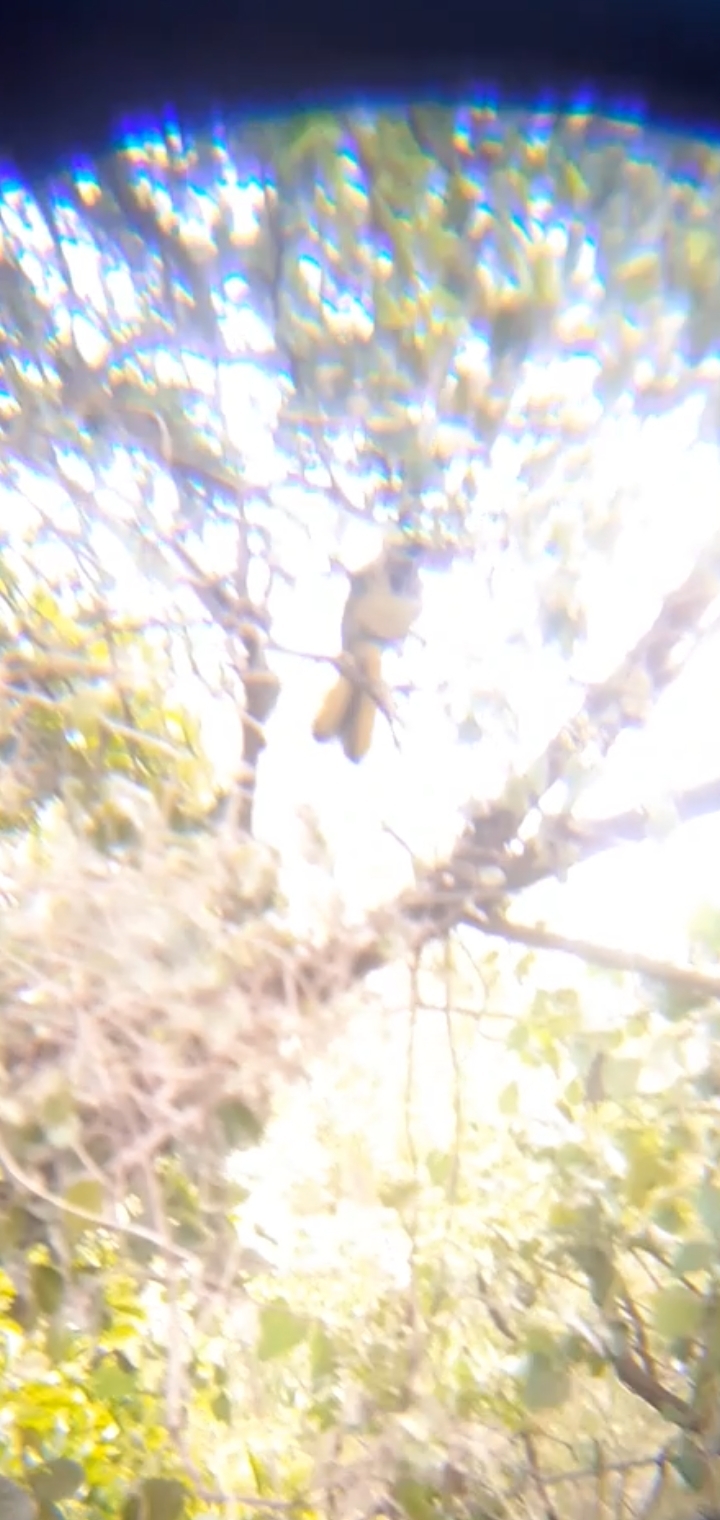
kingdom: Animalia
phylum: Chordata
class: Aves
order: Passeriformes
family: Corvidae
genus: Cyanocorax
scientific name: Cyanocorax yncas
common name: Green jay
